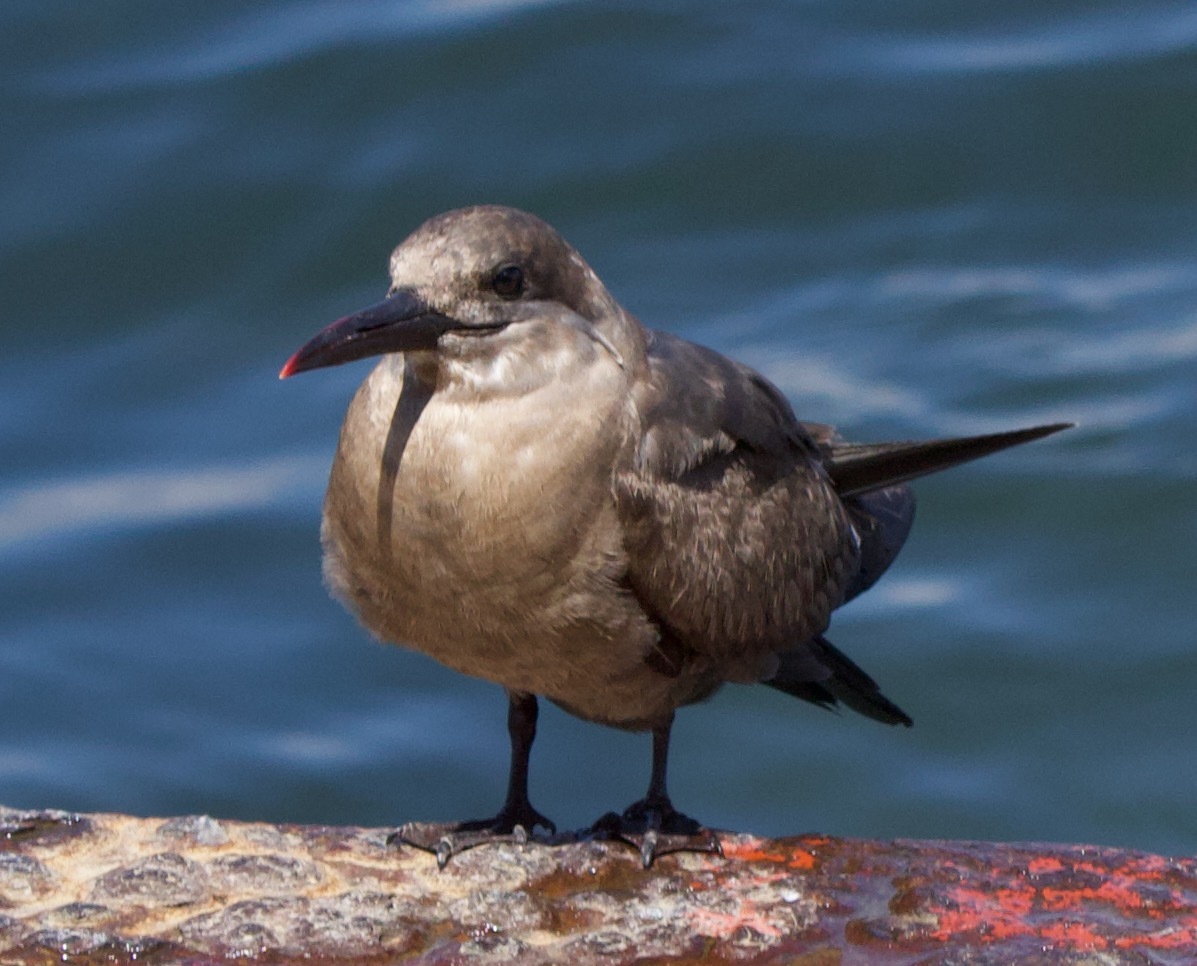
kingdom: Animalia
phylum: Chordata
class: Aves
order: Charadriiformes
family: Laridae
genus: Larosterna
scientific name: Larosterna inca
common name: Inca tern
